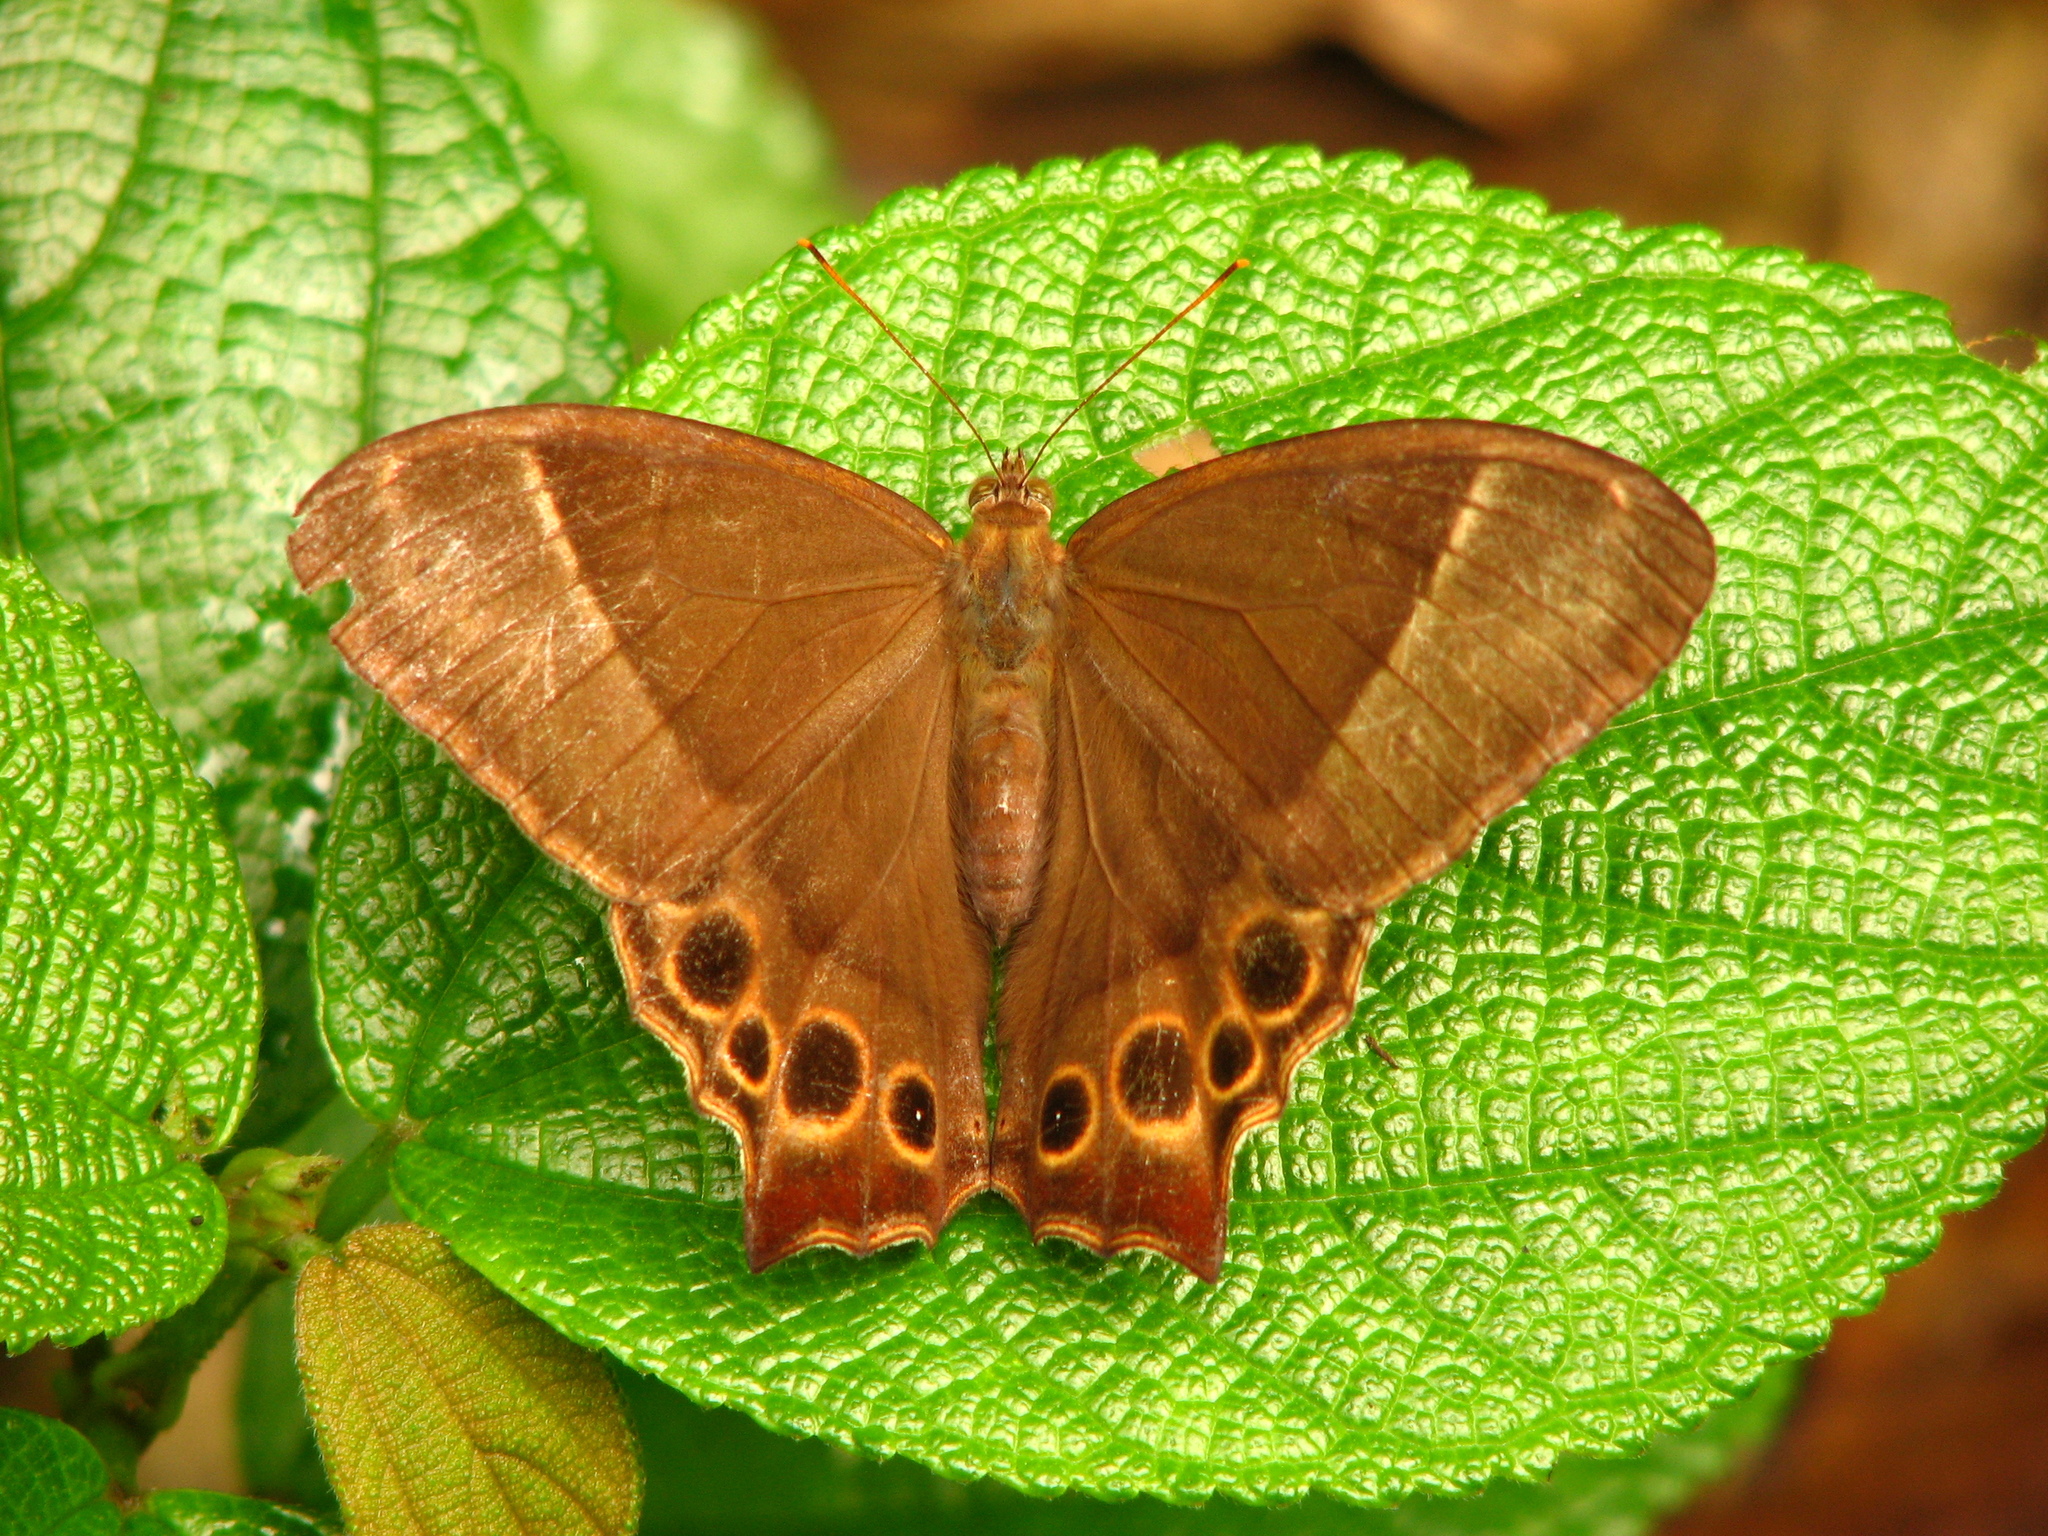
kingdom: Animalia
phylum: Arthropoda
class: Insecta
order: Lepidoptera
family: Nymphalidae
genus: Lethe
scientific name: Lethe kansa
